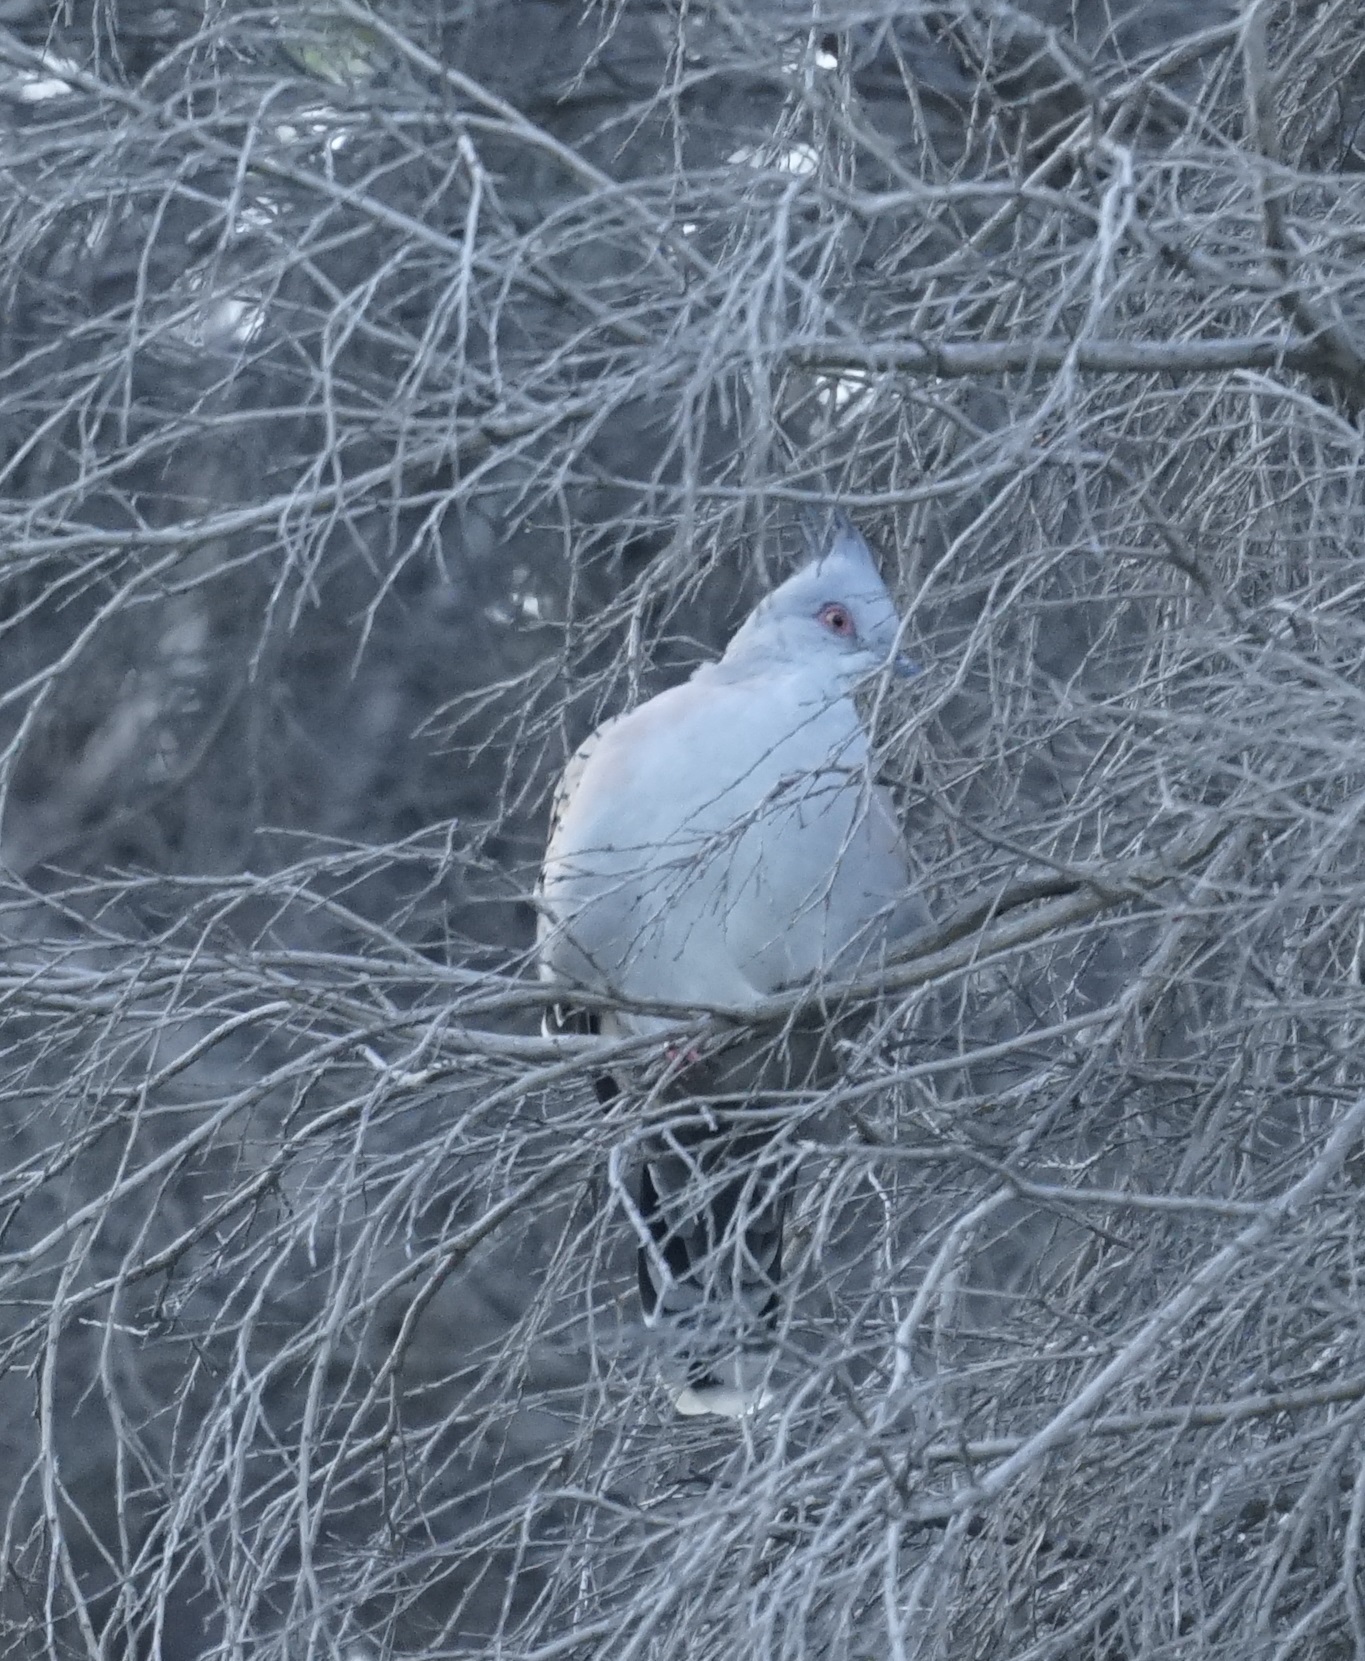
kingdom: Animalia
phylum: Chordata
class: Aves
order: Columbiformes
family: Columbidae
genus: Ocyphaps
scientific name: Ocyphaps lophotes
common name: Crested pigeon
